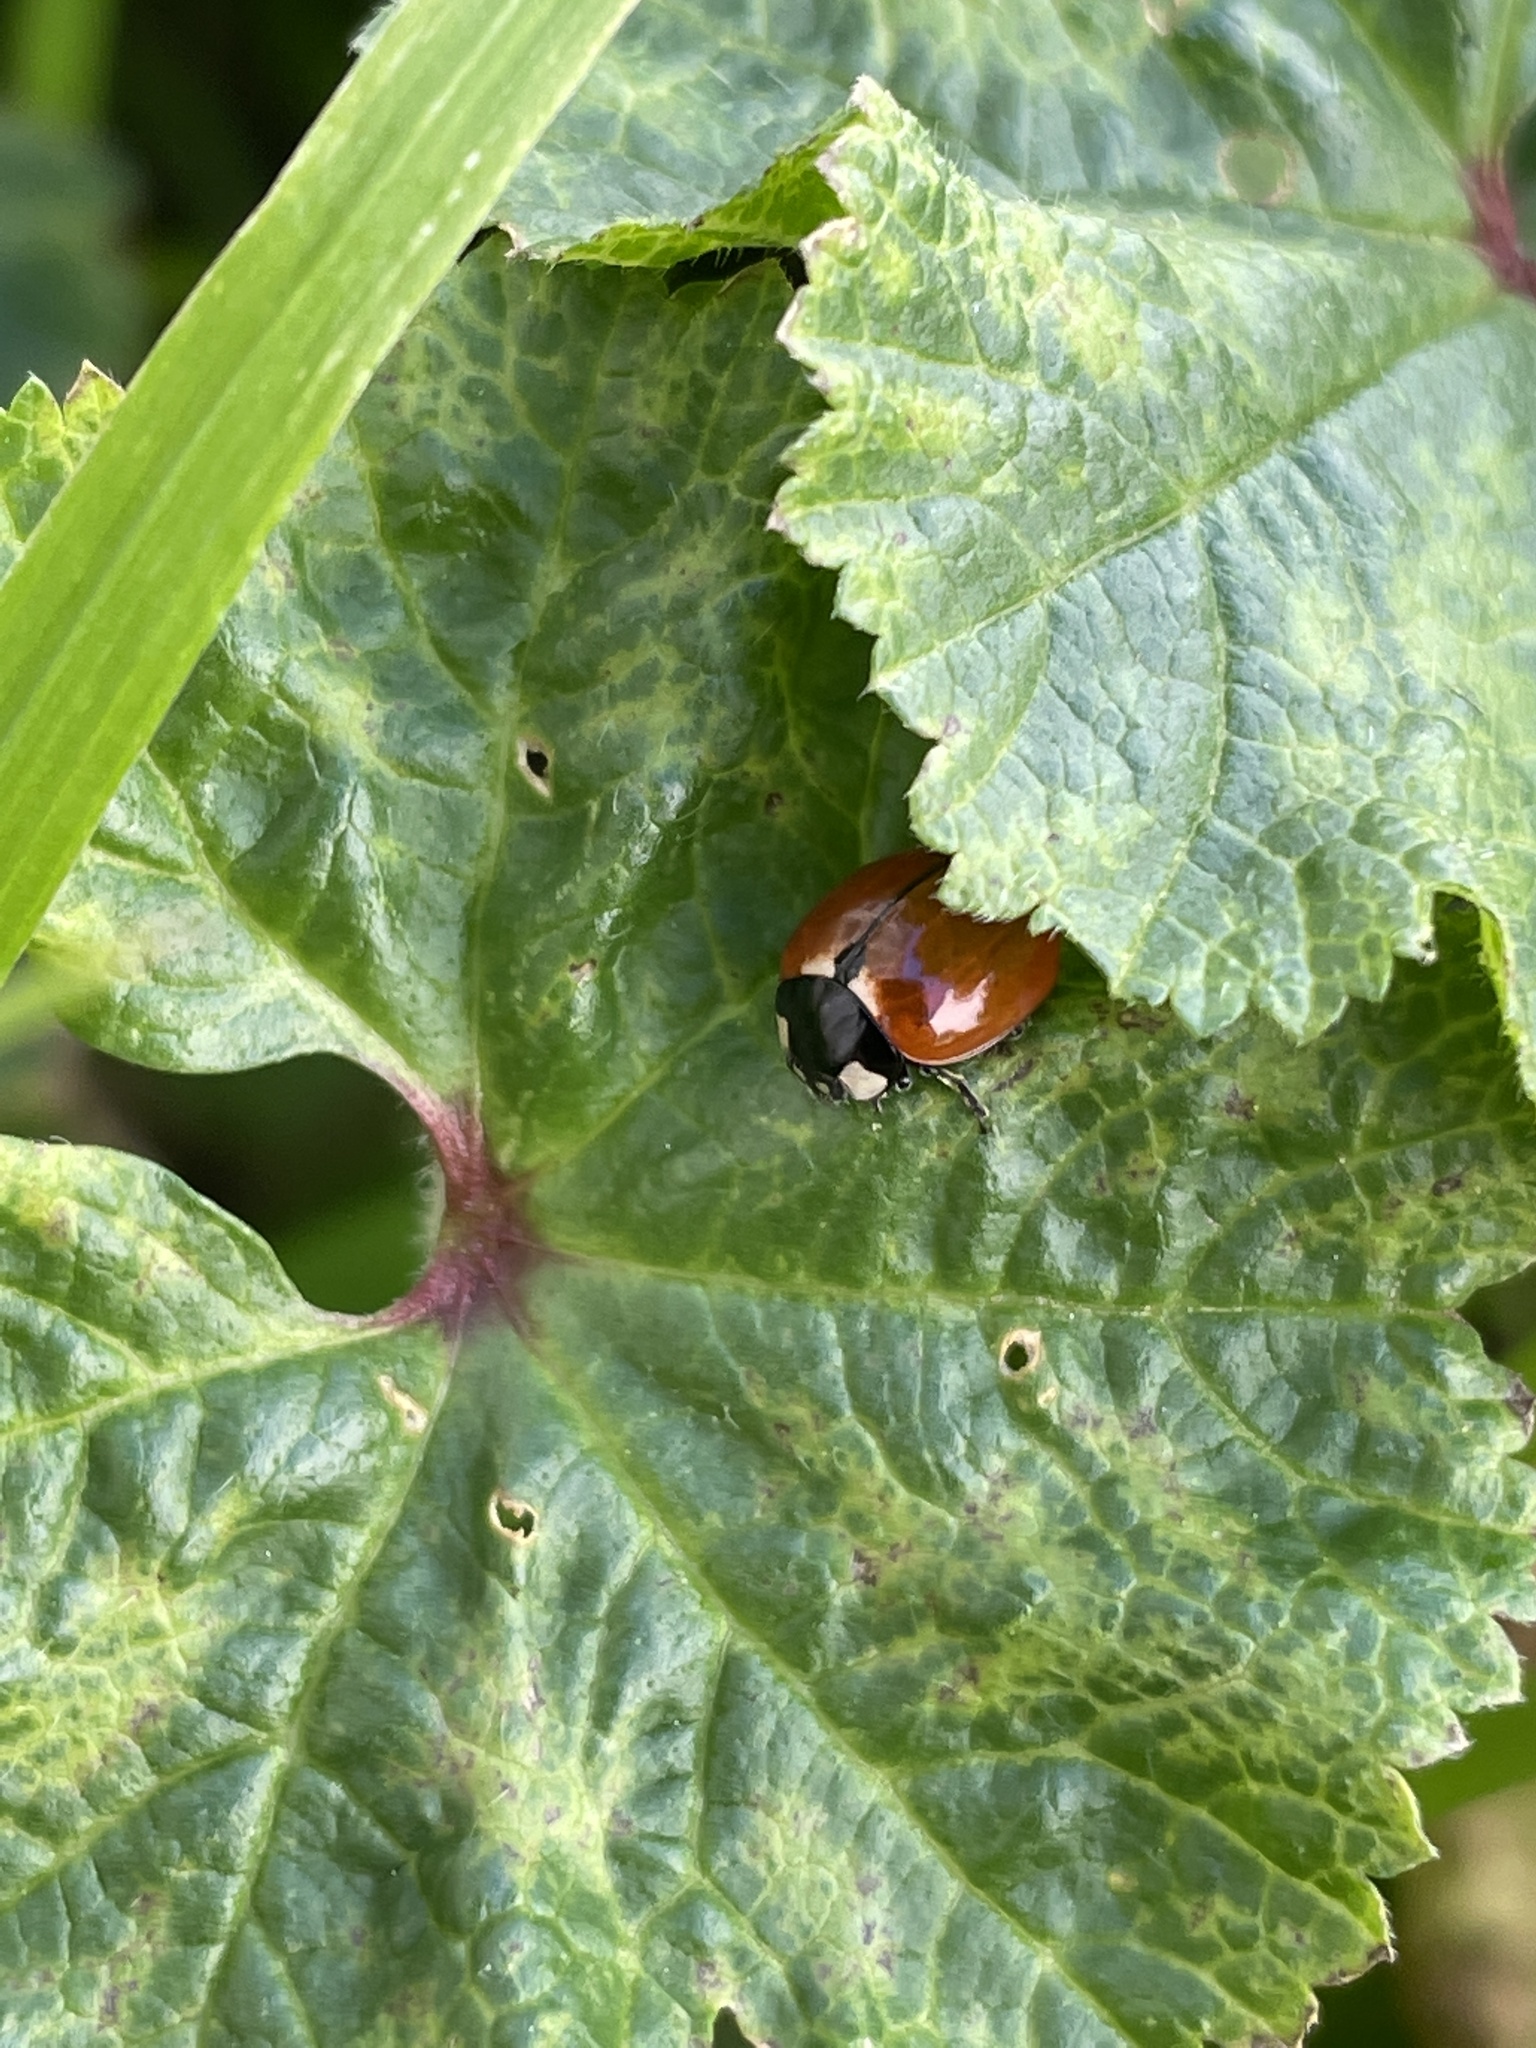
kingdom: Animalia
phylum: Arthropoda
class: Insecta
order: Coleoptera
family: Coccinellidae
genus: Coccinella
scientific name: Coccinella californica
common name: Lady beetle
